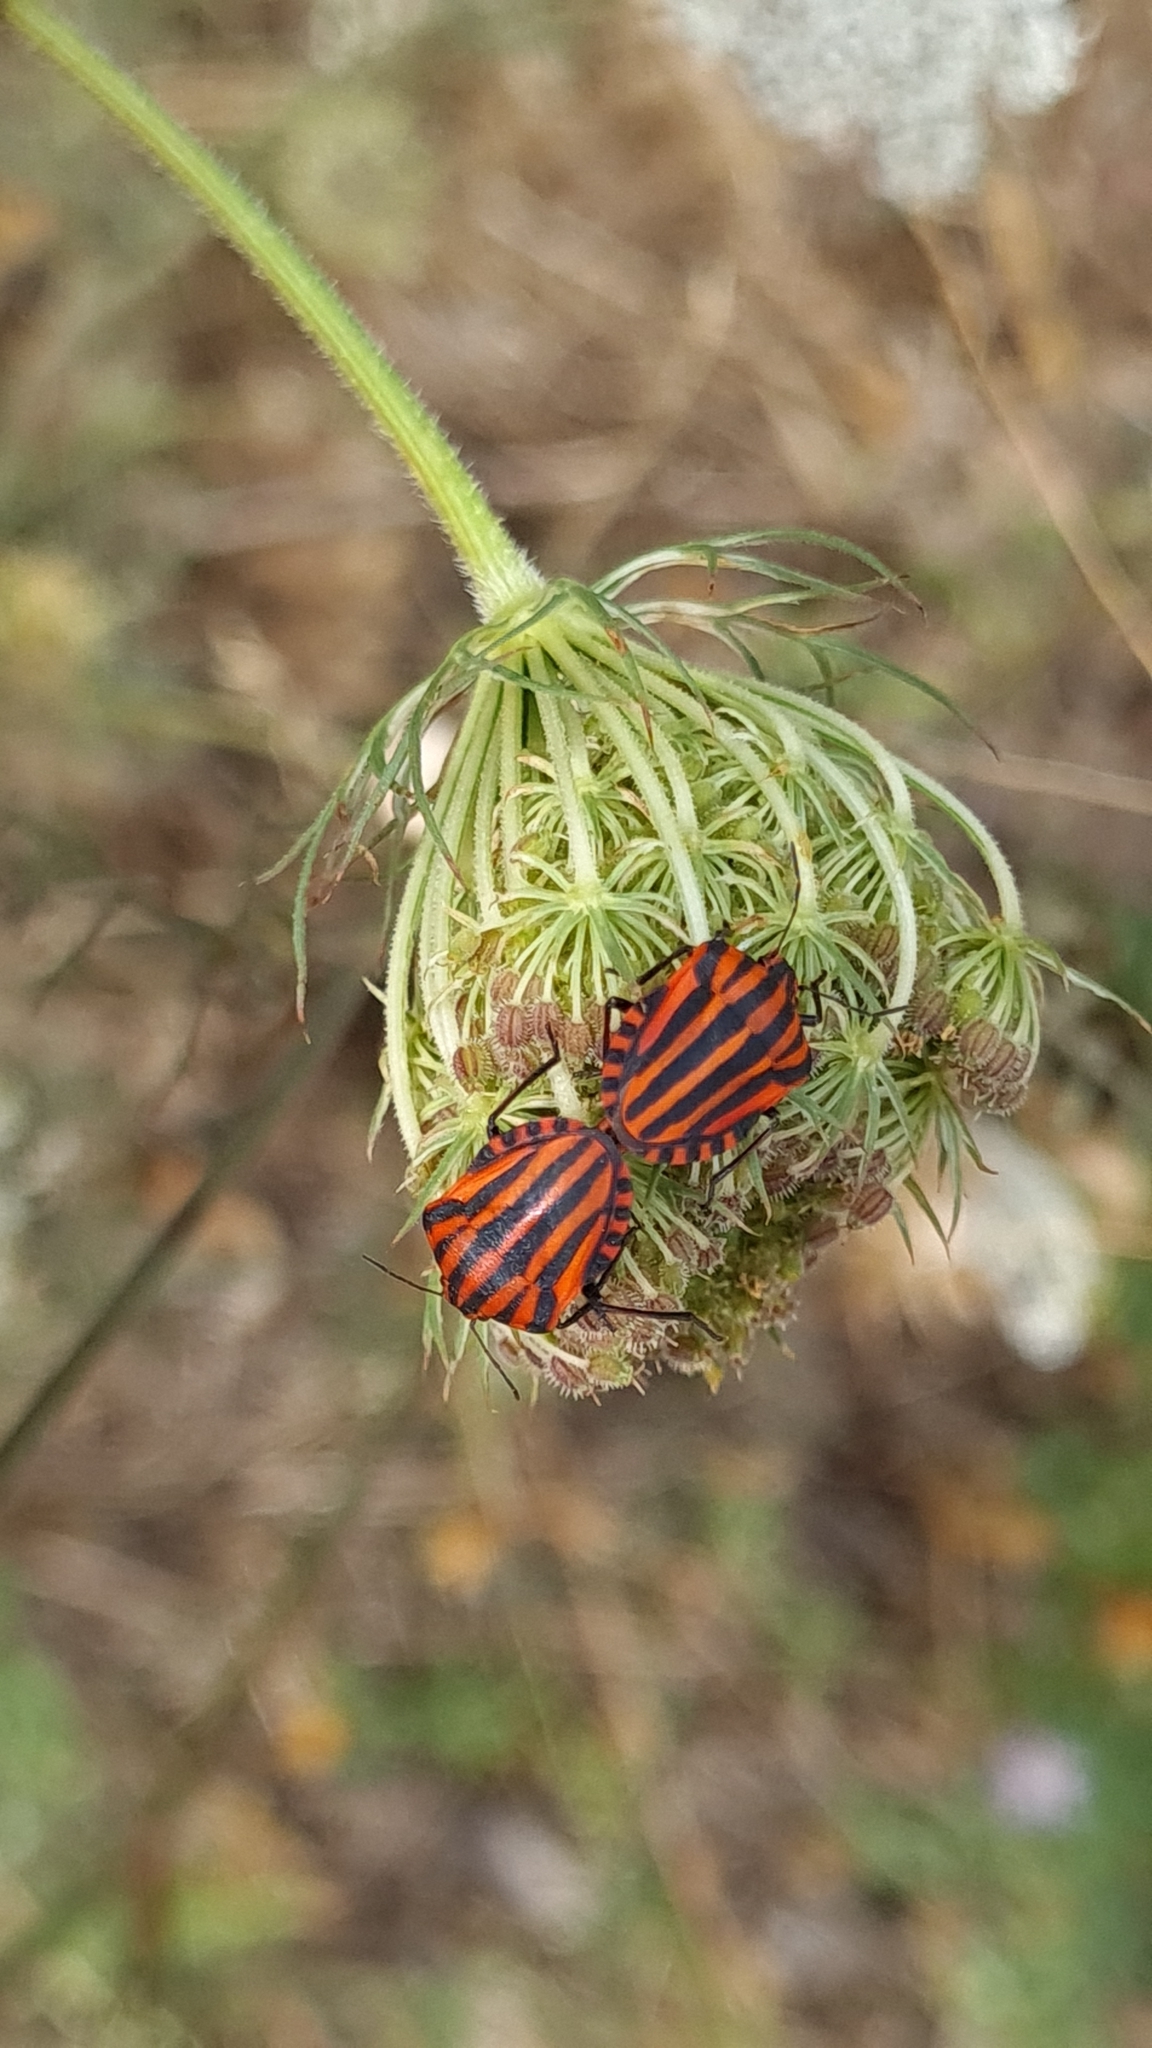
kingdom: Animalia
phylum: Arthropoda
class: Insecta
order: Hemiptera
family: Pentatomidae
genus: Graphosoma
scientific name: Graphosoma italicum
